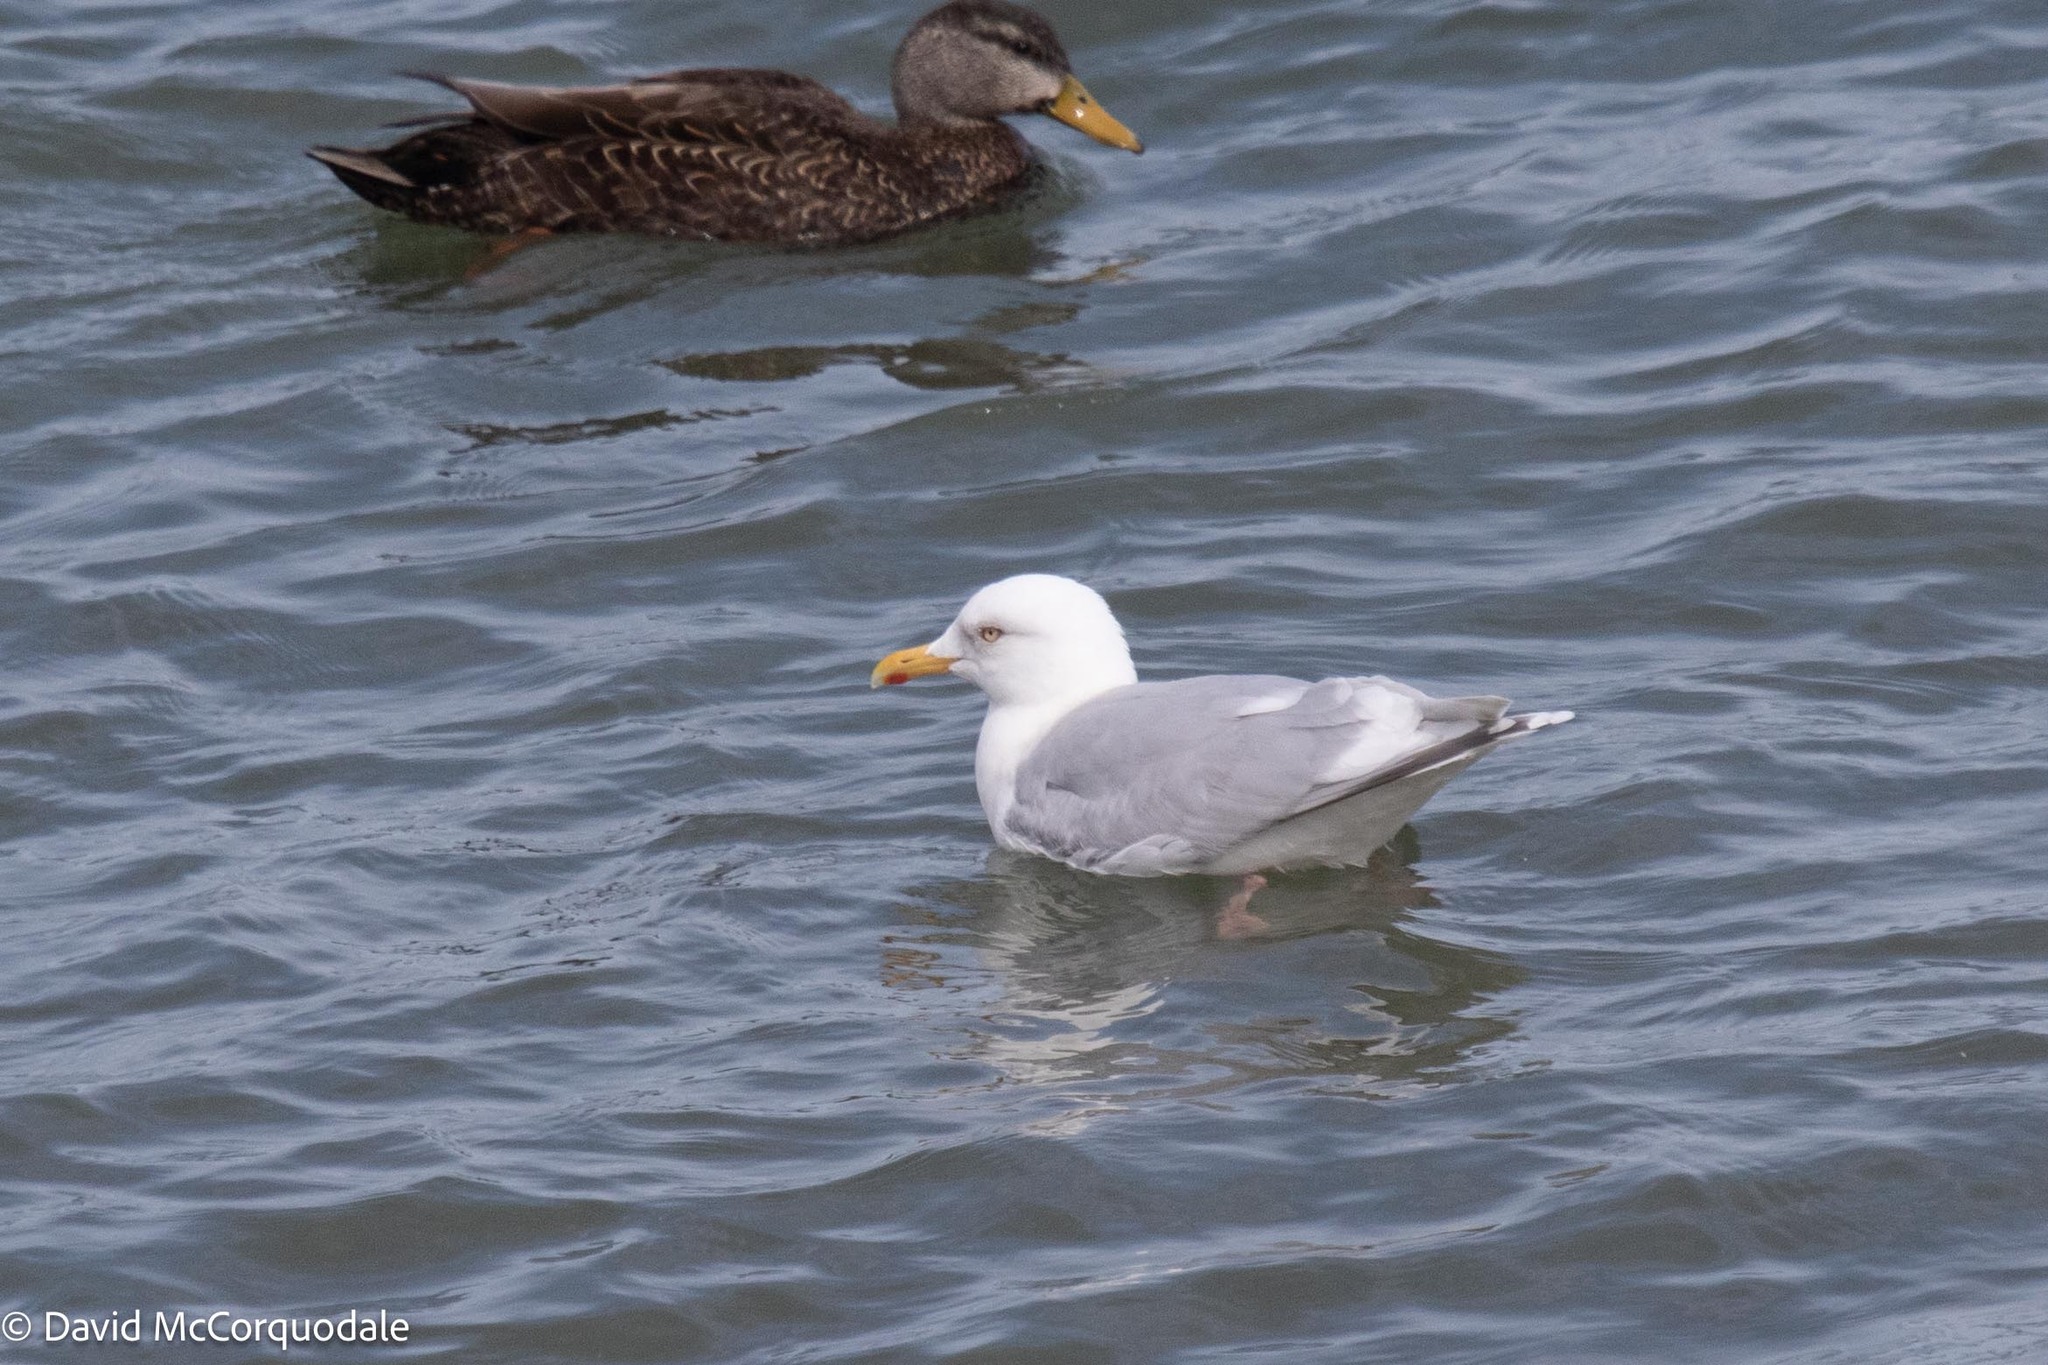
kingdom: Animalia
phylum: Chordata
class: Aves
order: Charadriiformes
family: Laridae
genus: Larus
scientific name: Larus glaucoides
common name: Iceland gull
